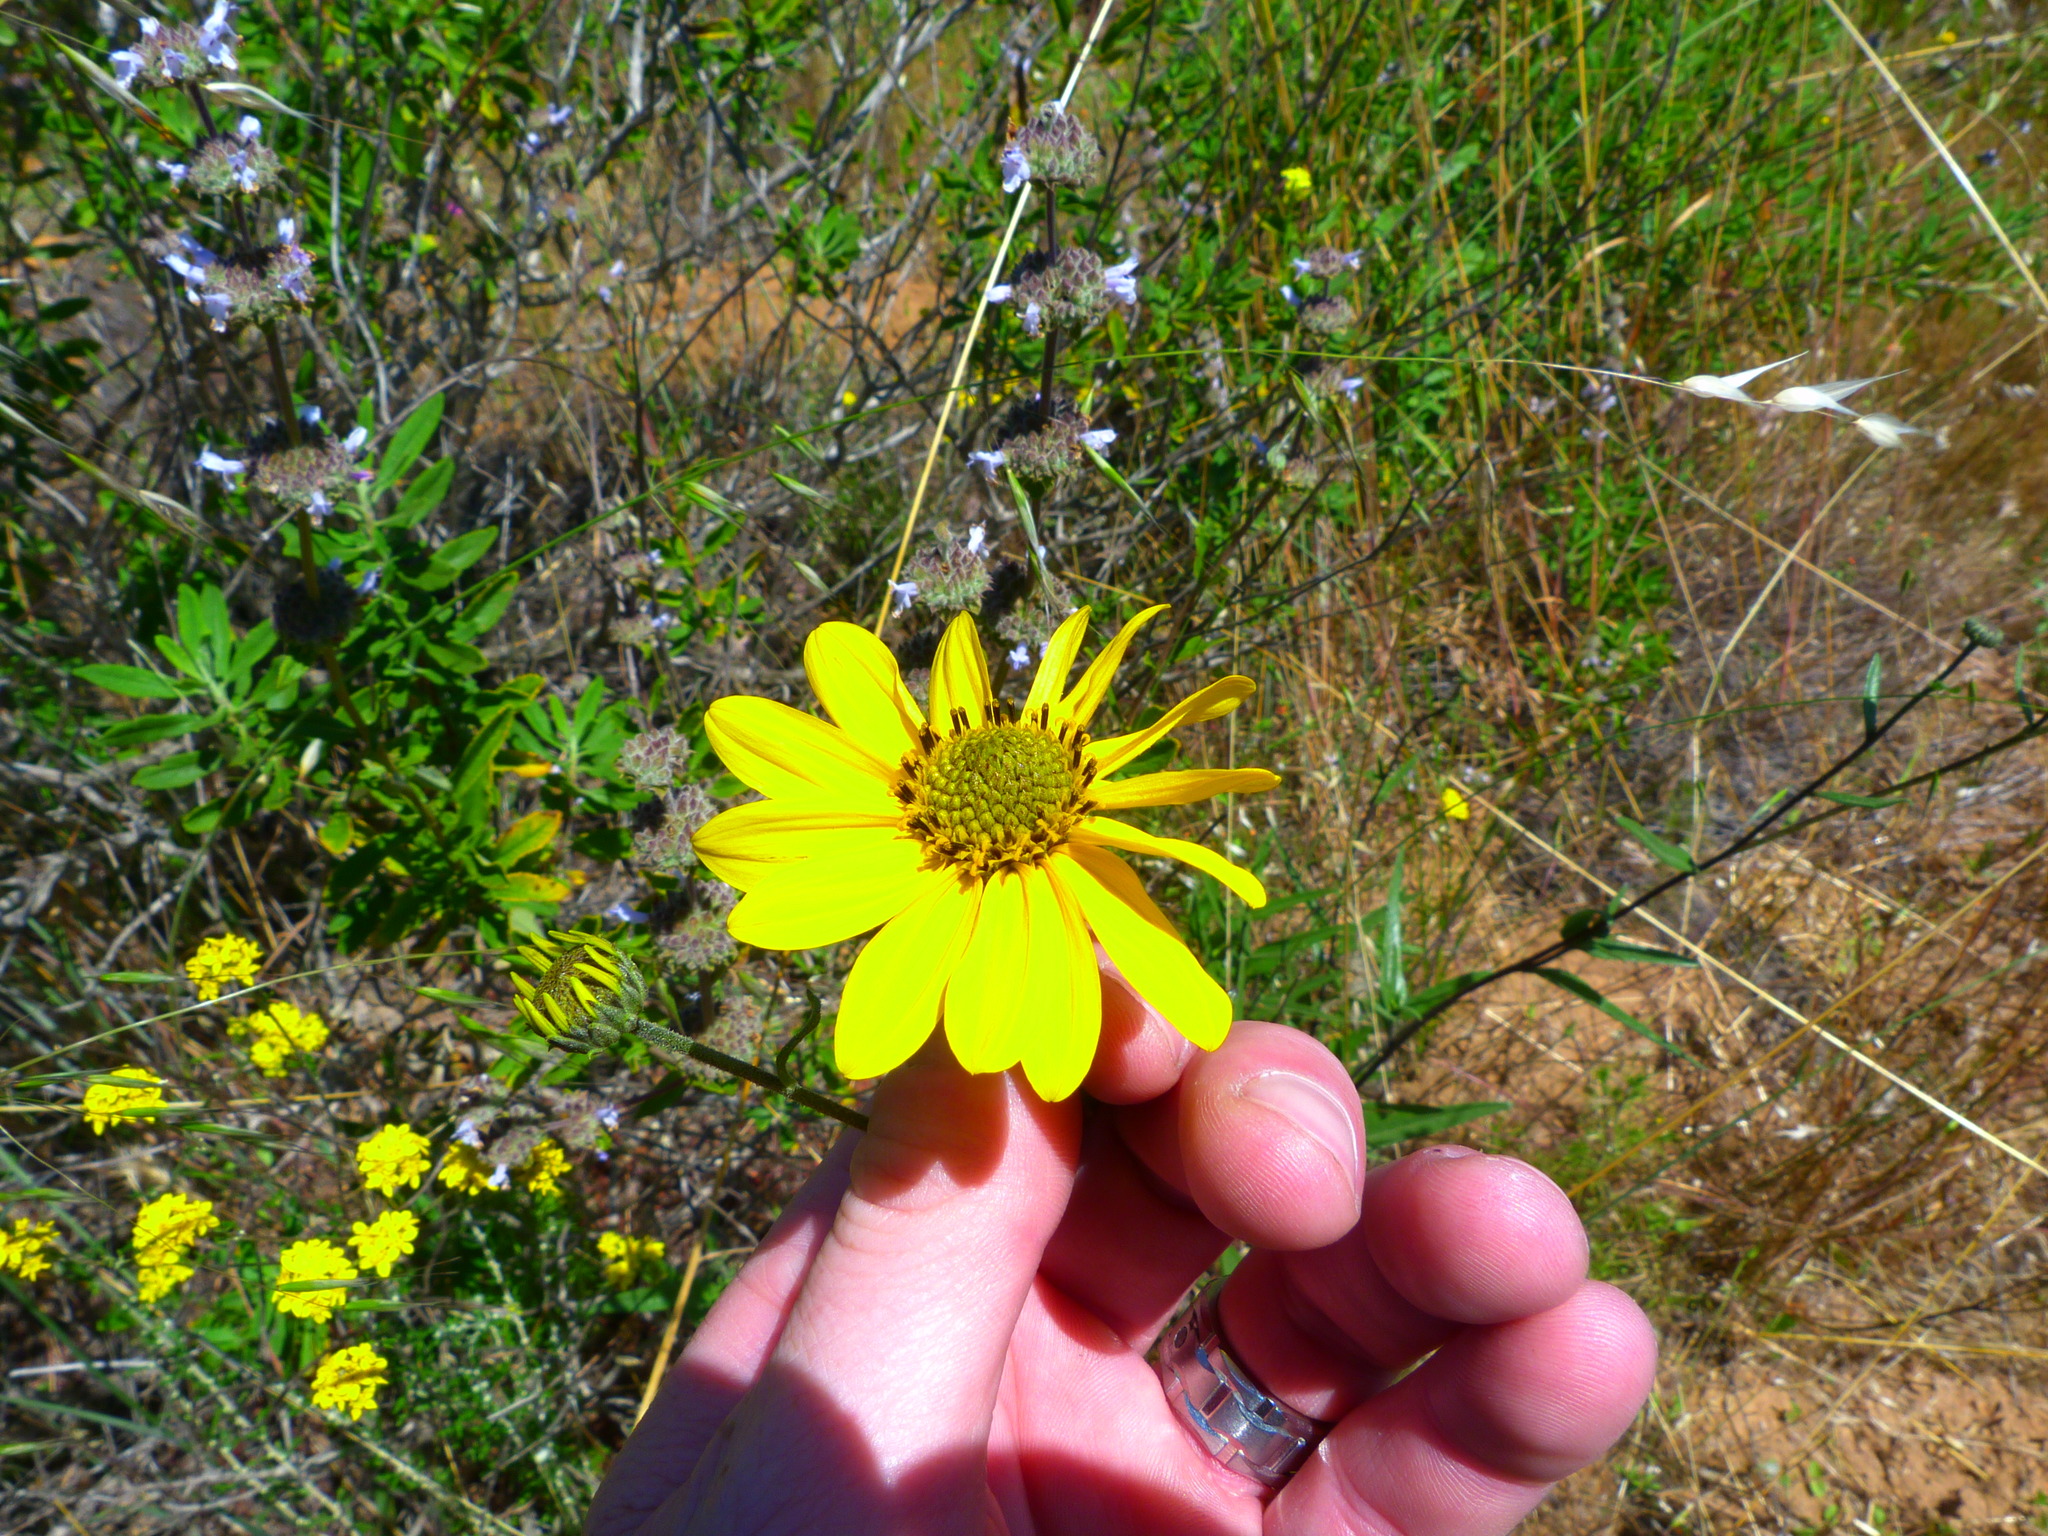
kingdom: Plantae
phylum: Tracheophyta
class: Magnoliopsida
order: Asterales
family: Asteraceae
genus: Helianthus
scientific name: Helianthus gracilentus
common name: Slender sunflower
